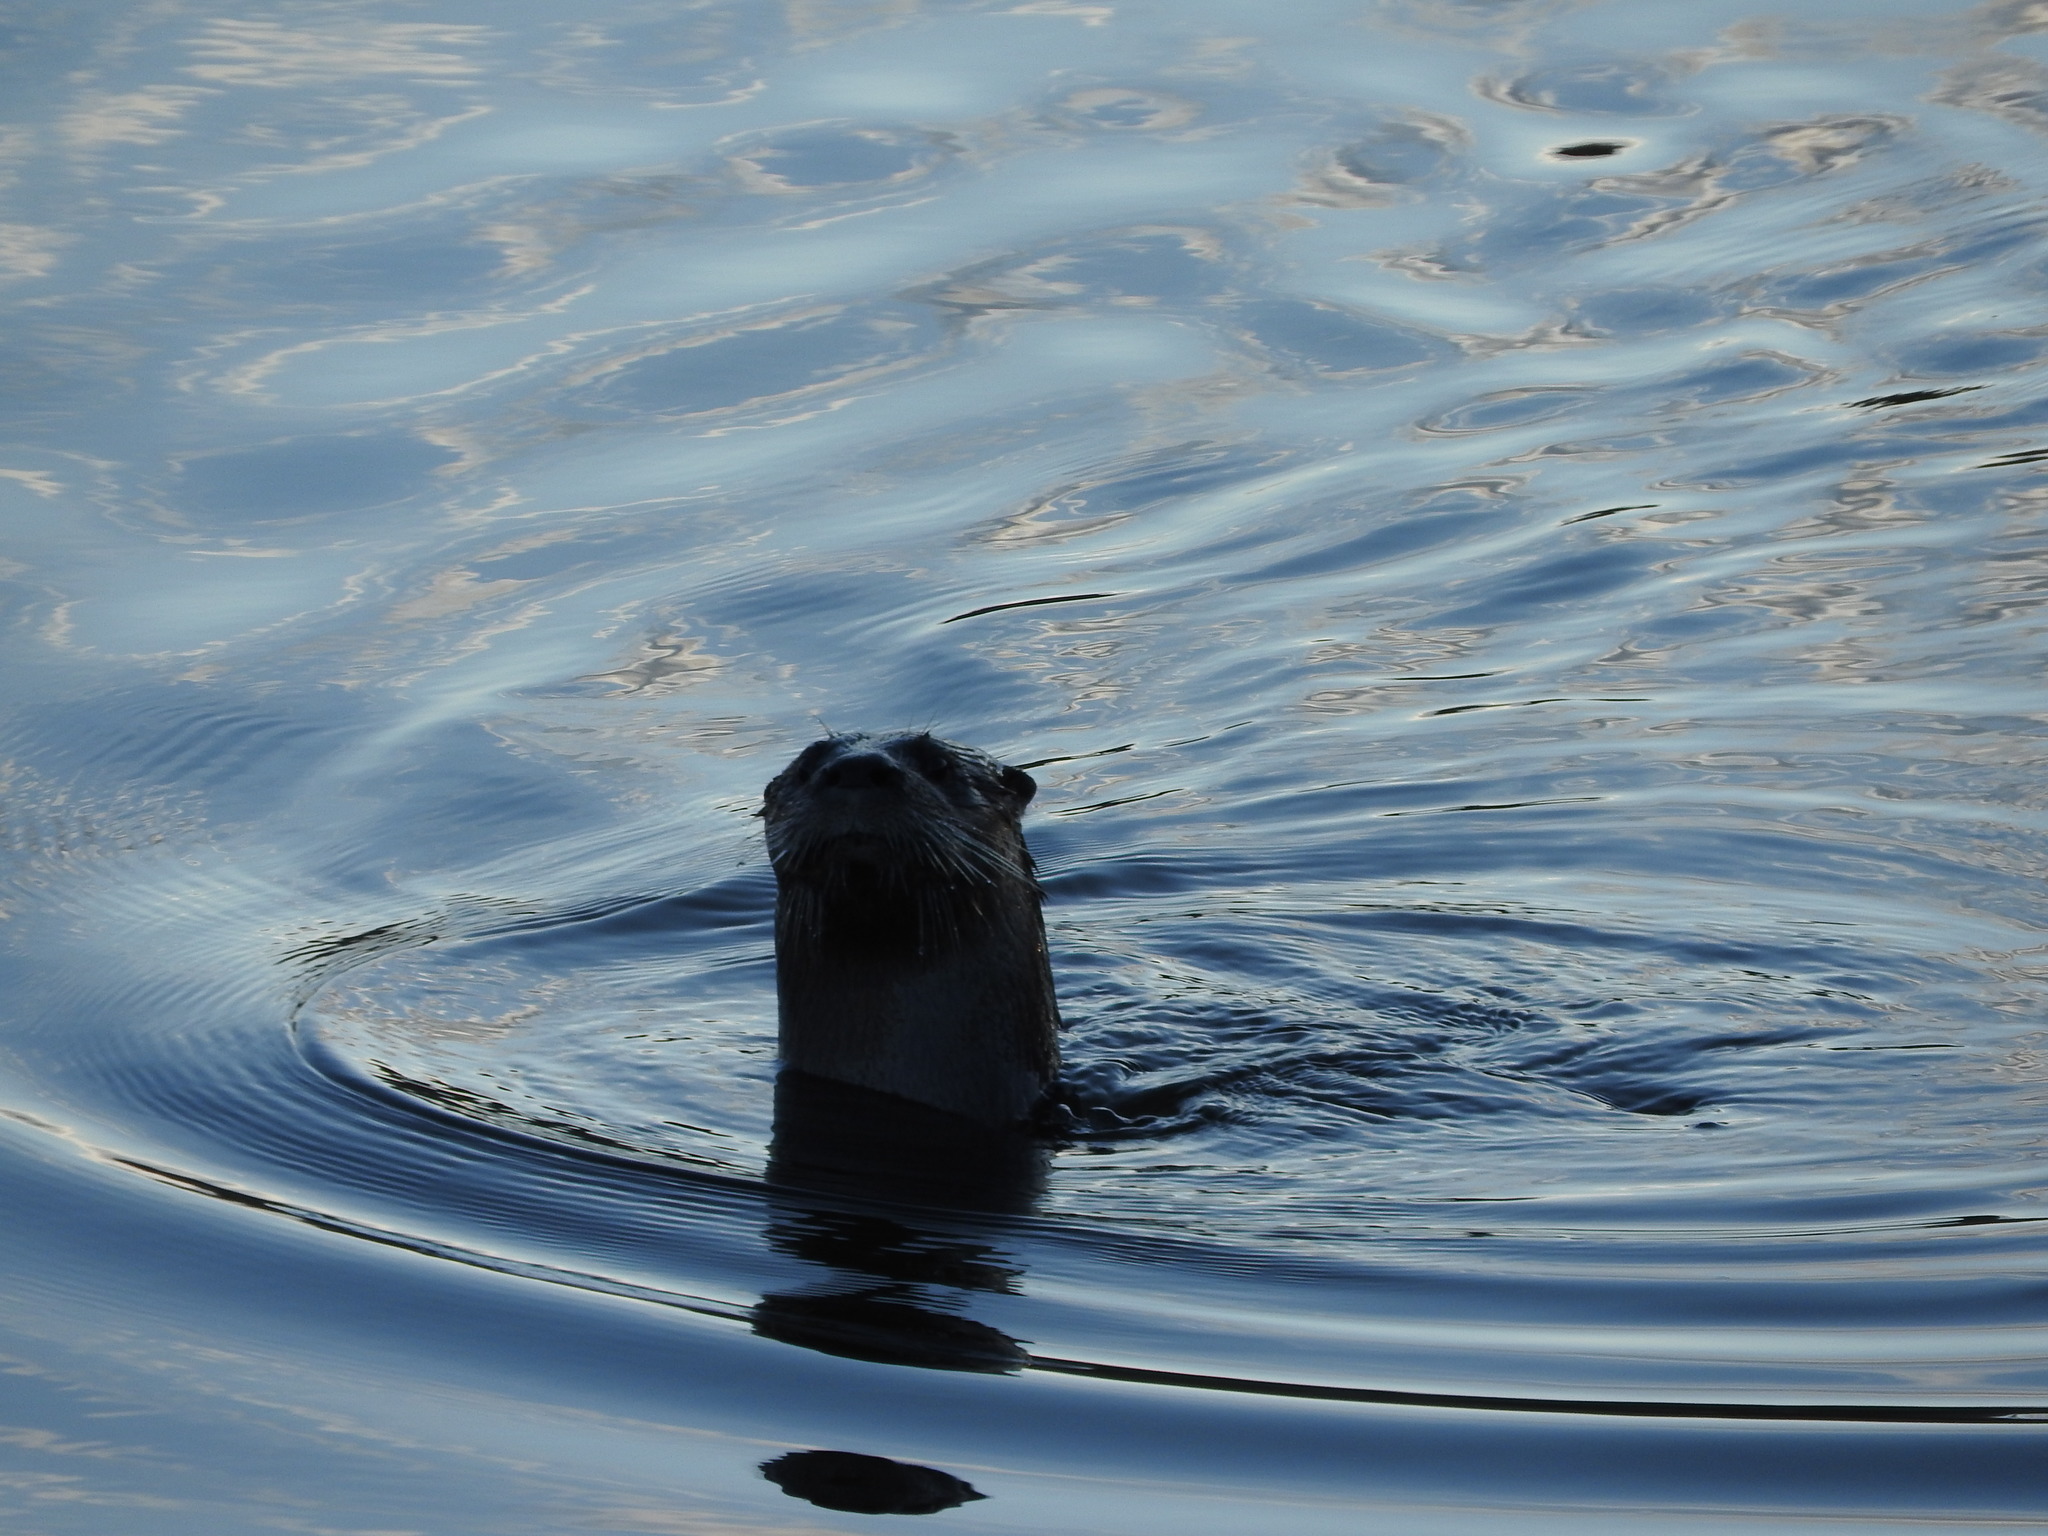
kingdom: Animalia
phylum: Chordata
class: Mammalia
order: Carnivora
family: Mustelidae
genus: Lontra
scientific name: Lontra canadensis
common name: North american river otter
